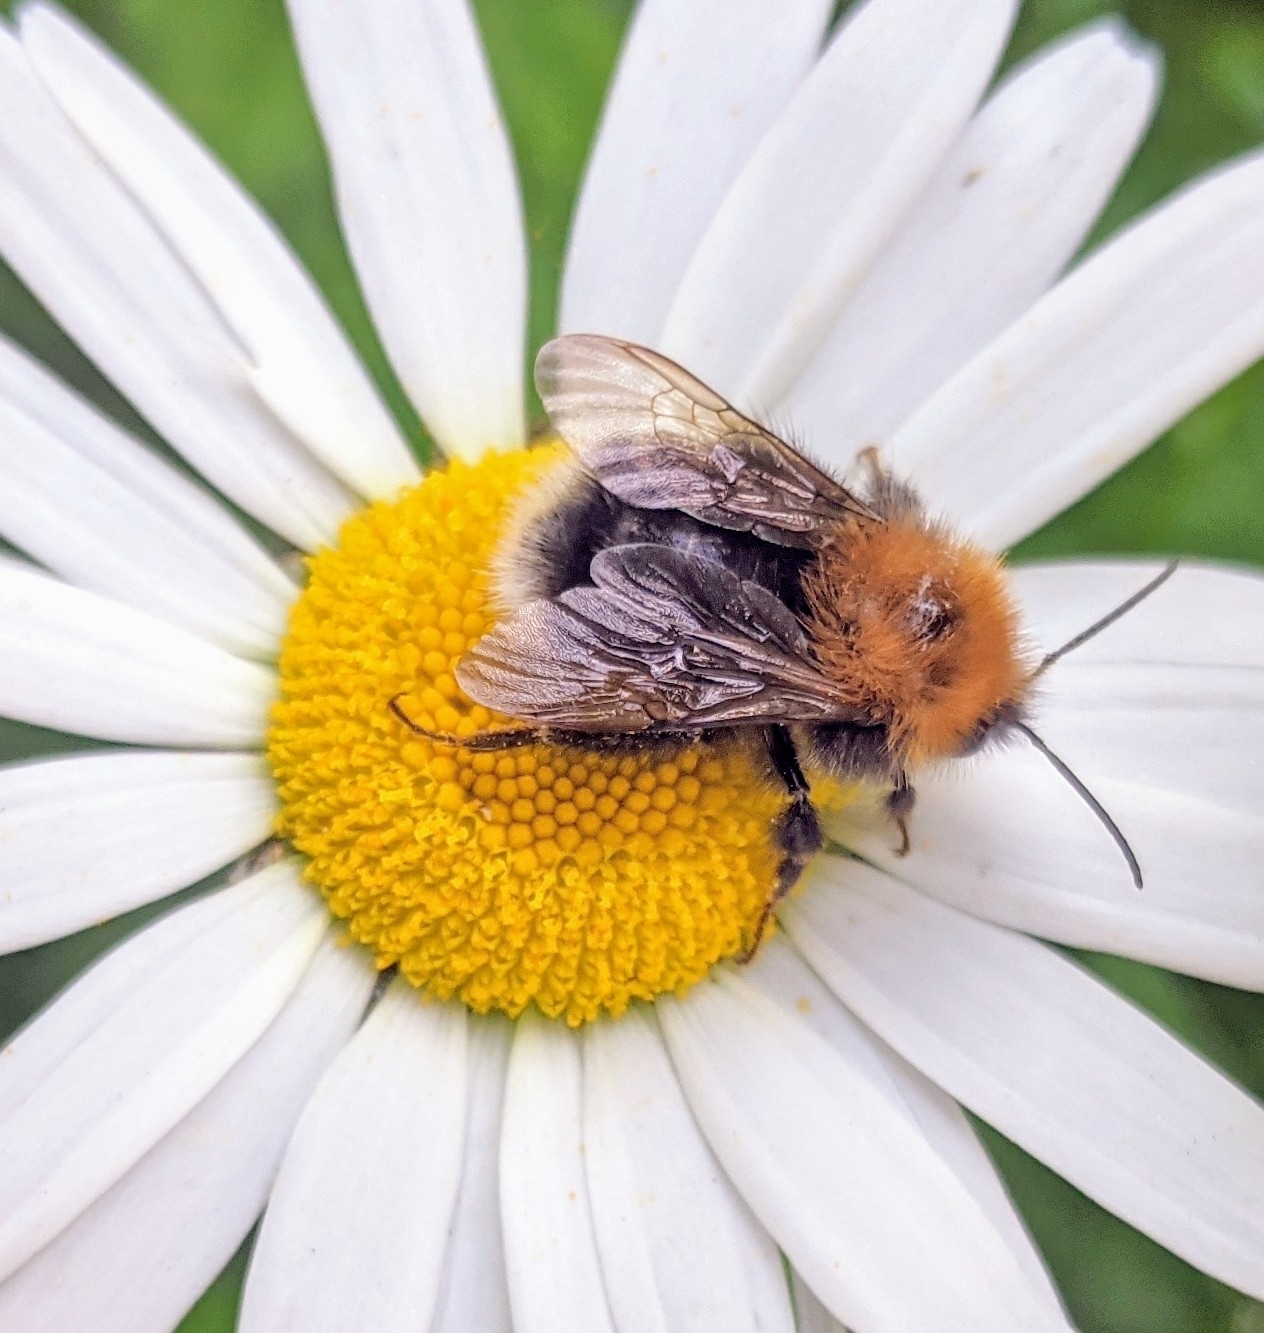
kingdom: Animalia
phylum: Arthropoda
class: Insecta
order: Hymenoptera
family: Apidae
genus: Bombus
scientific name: Bombus hypnorum
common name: New garden bumblebee
